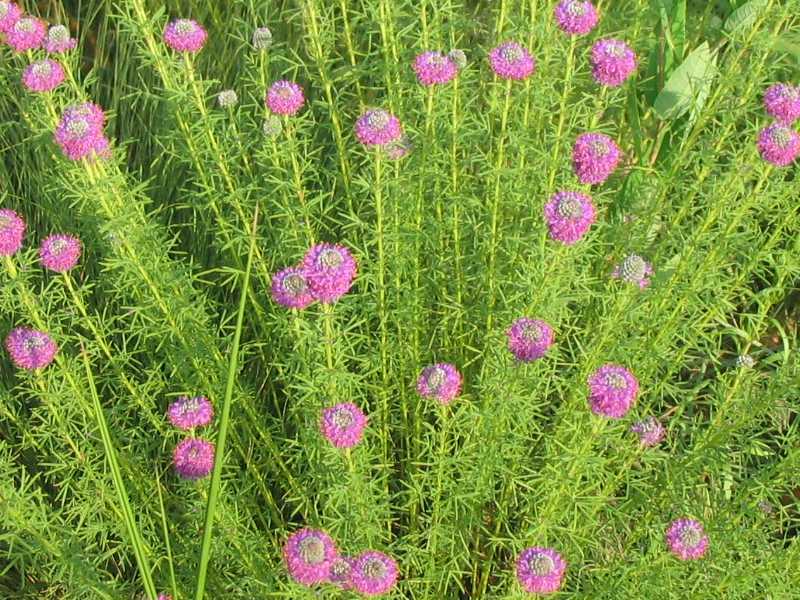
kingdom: Plantae
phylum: Tracheophyta
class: Magnoliopsida
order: Fabales
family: Fabaceae
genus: Dalea
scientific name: Dalea purpurea
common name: Purple prairie-clover
